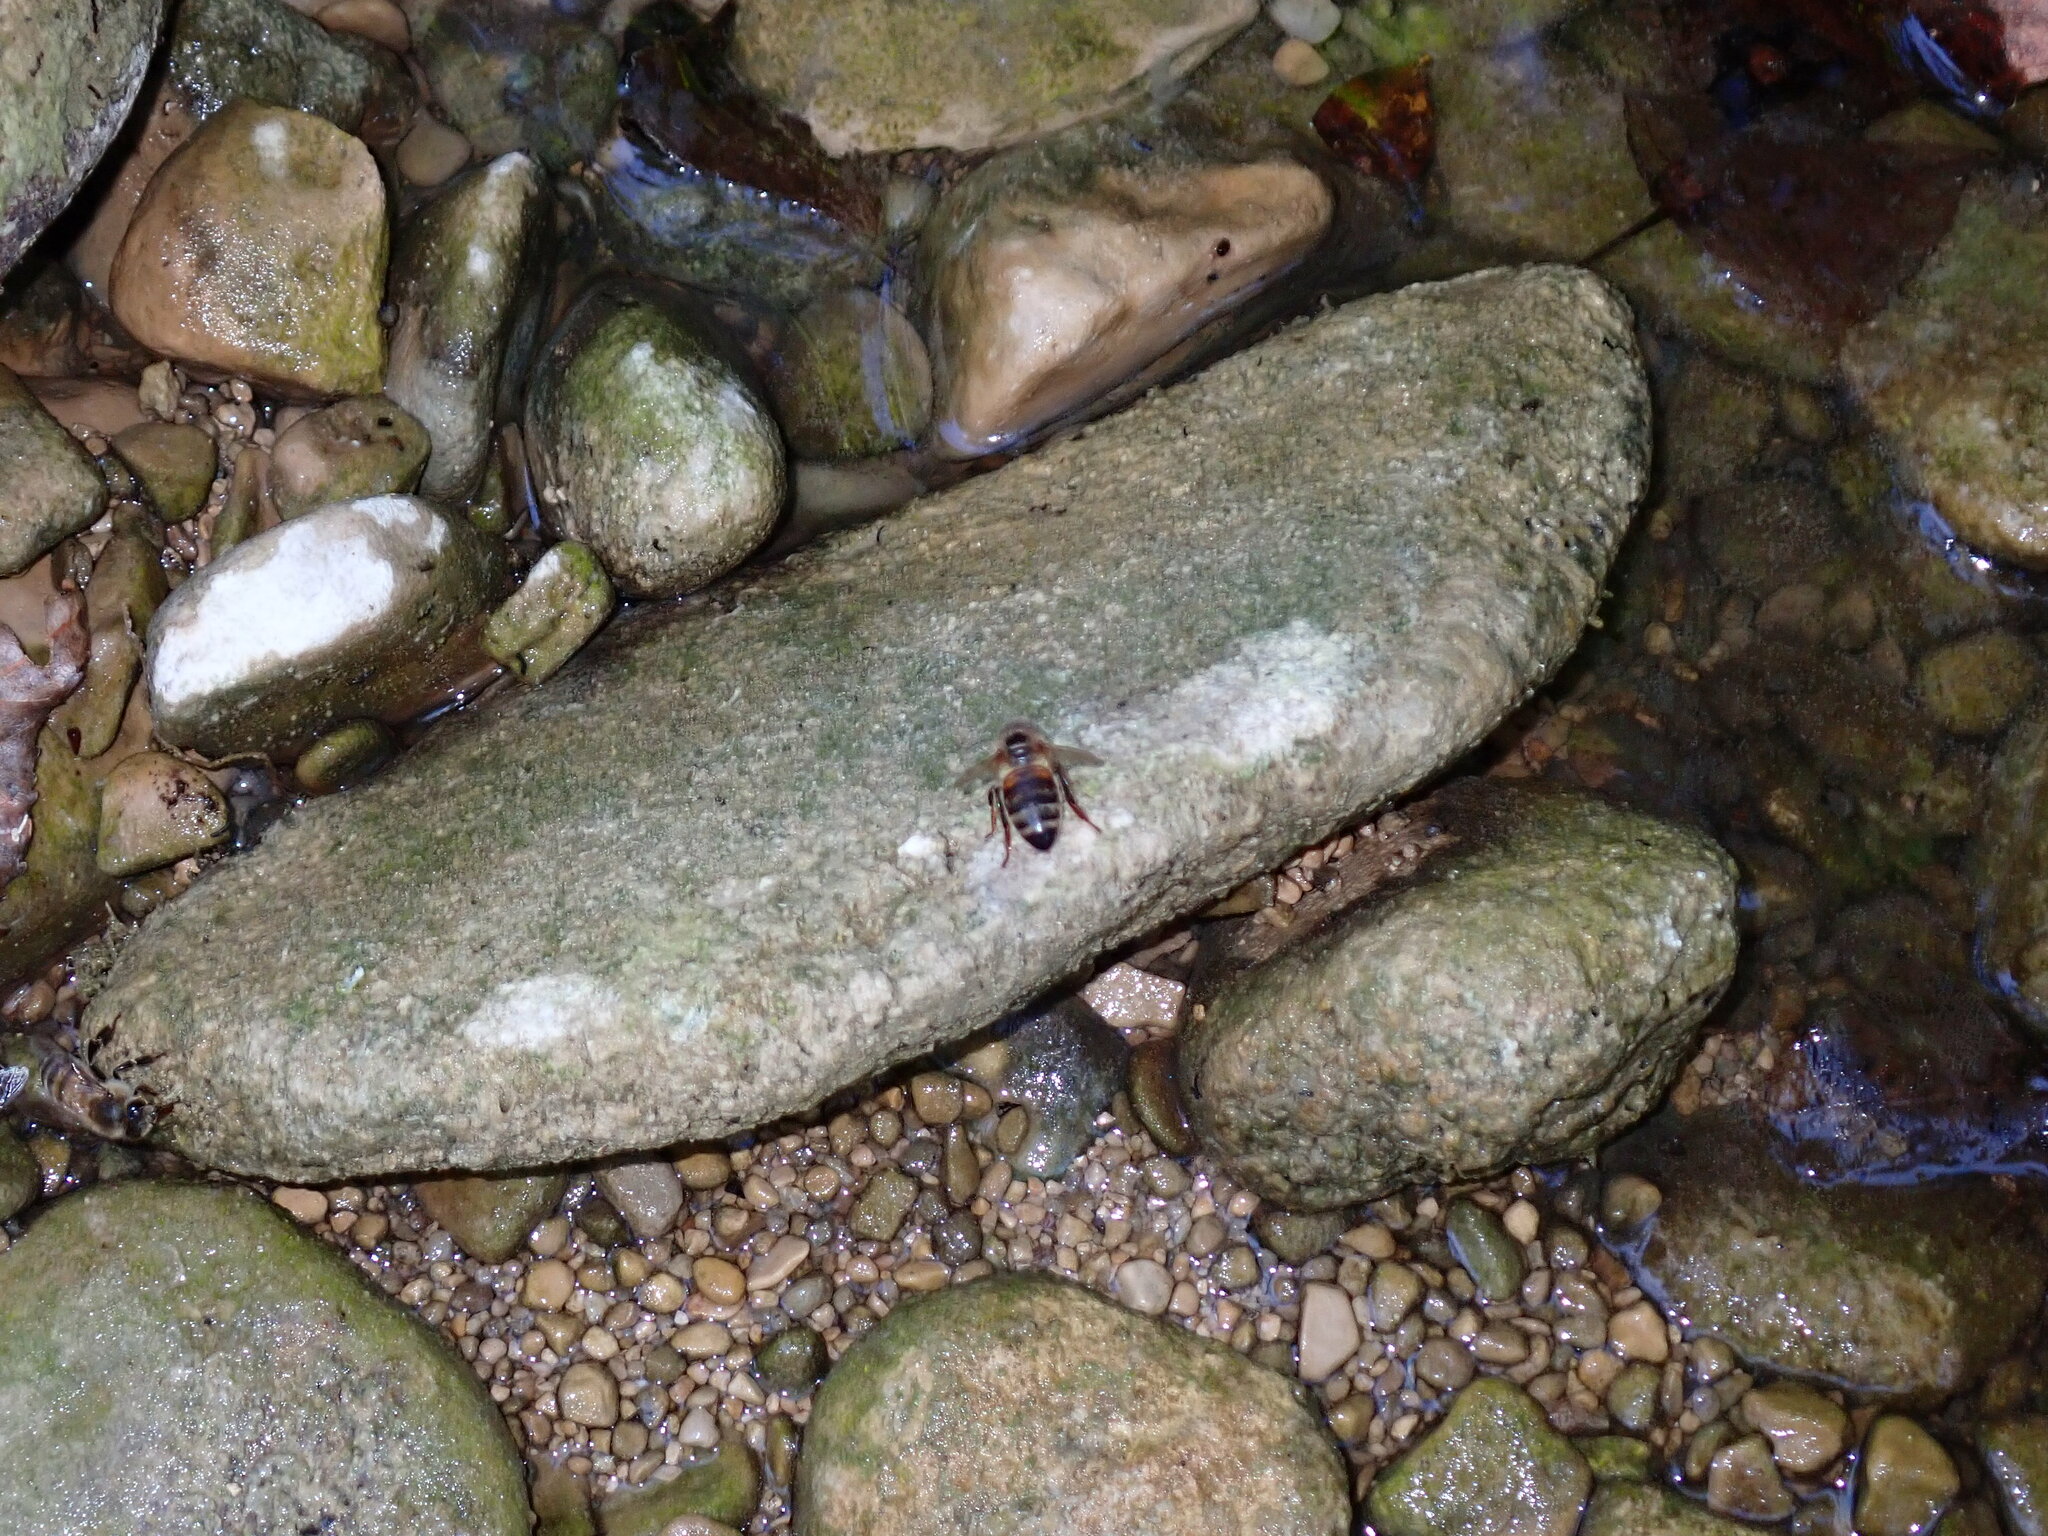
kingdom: Animalia
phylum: Arthropoda
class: Insecta
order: Hymenoptera
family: Apidae
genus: Apis
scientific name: Apis mellifera
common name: Honey bee
